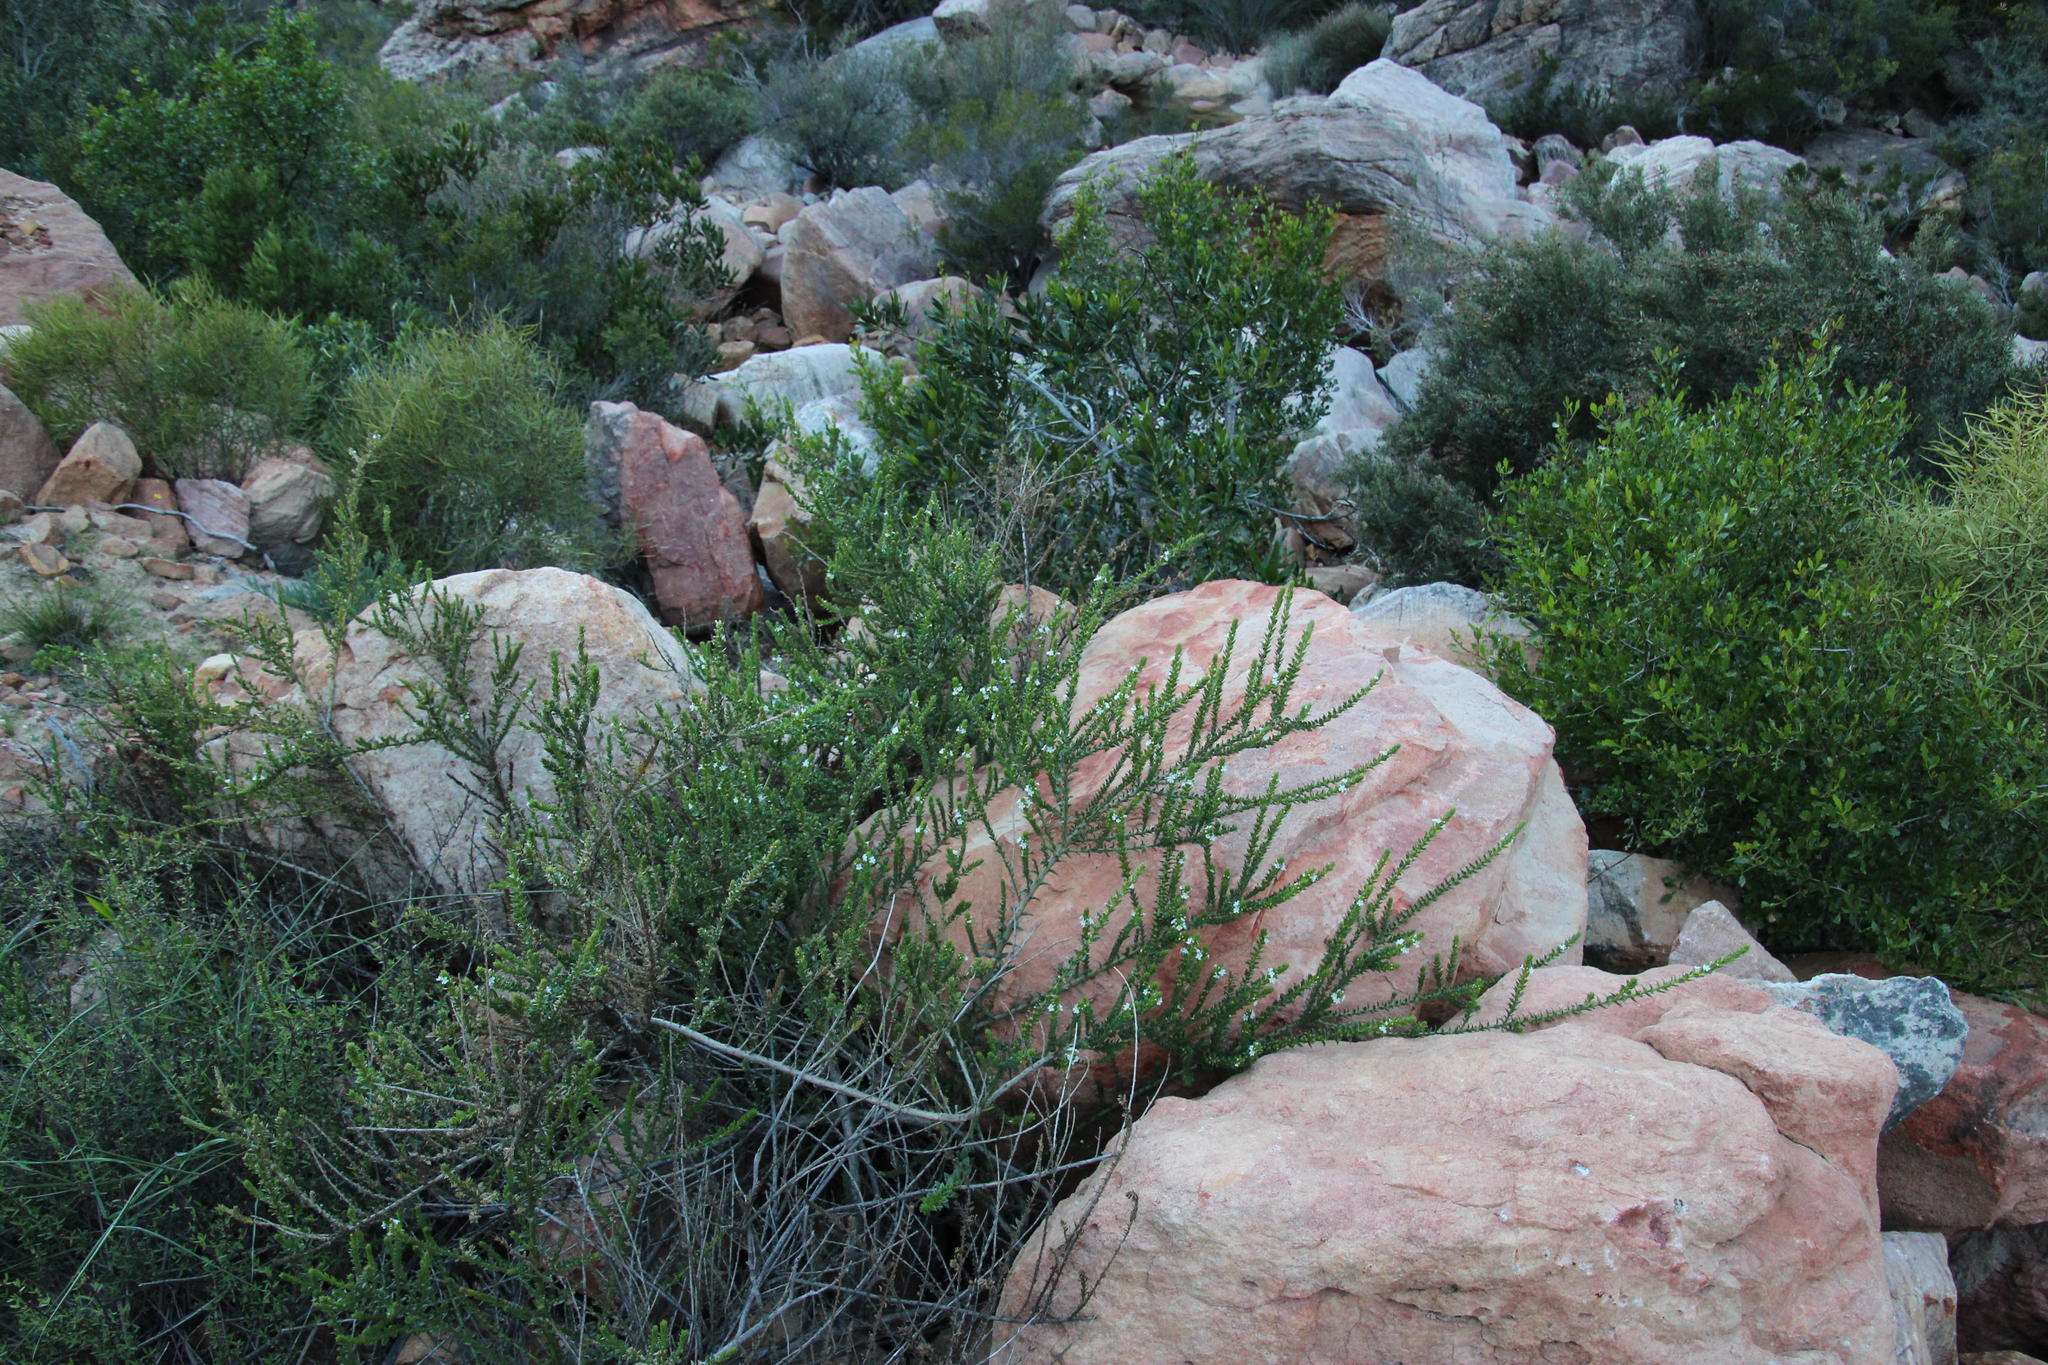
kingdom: Plantae
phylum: Tracheophyta
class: Magnoliopsida
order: Lamiales
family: Scrophulariaceae
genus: Oftia
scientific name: Oftia africana
